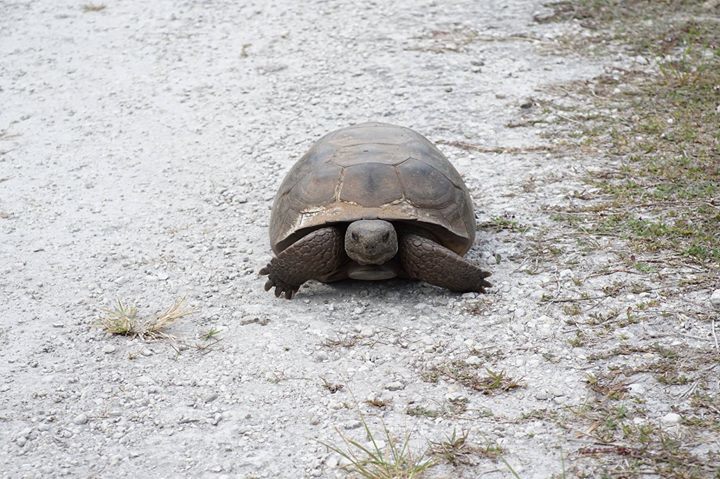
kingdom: Animalia
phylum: Chordata
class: Testudines
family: Testudinidae
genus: Gopherus
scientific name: Gopherus polyphemus
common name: Florida gopher tortoise
